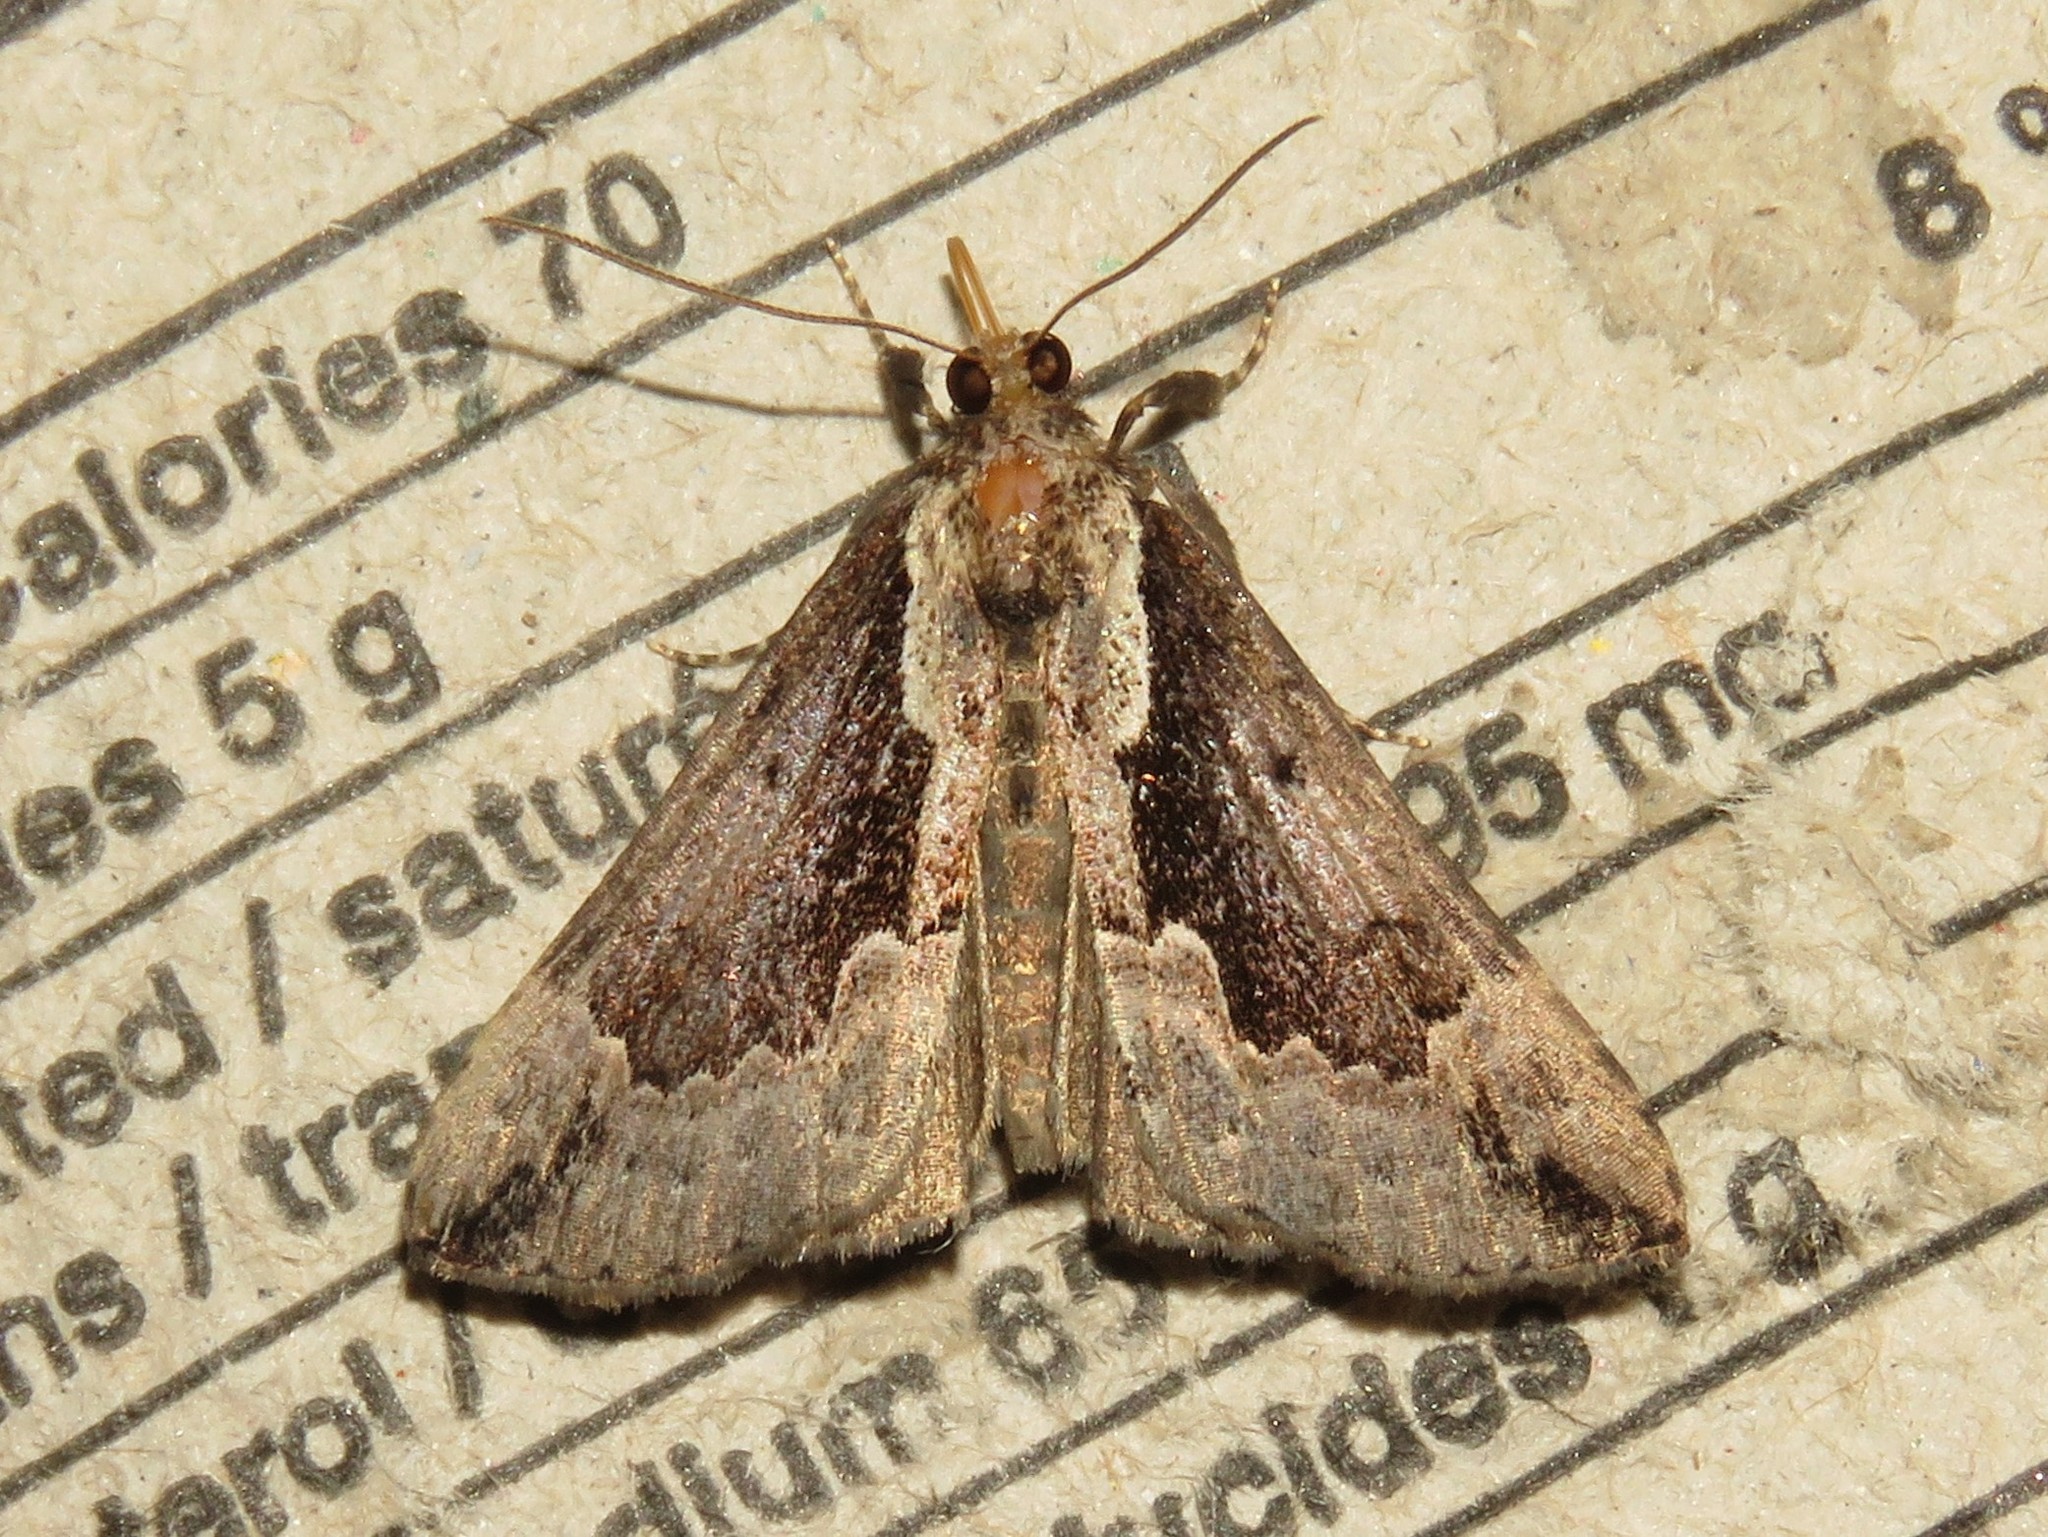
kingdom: Animalia
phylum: Arthropoda
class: Insecta
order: Lepidoptera
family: Erebidae
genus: Hypena
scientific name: Hypena baltimoralis
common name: Baltimore snout
